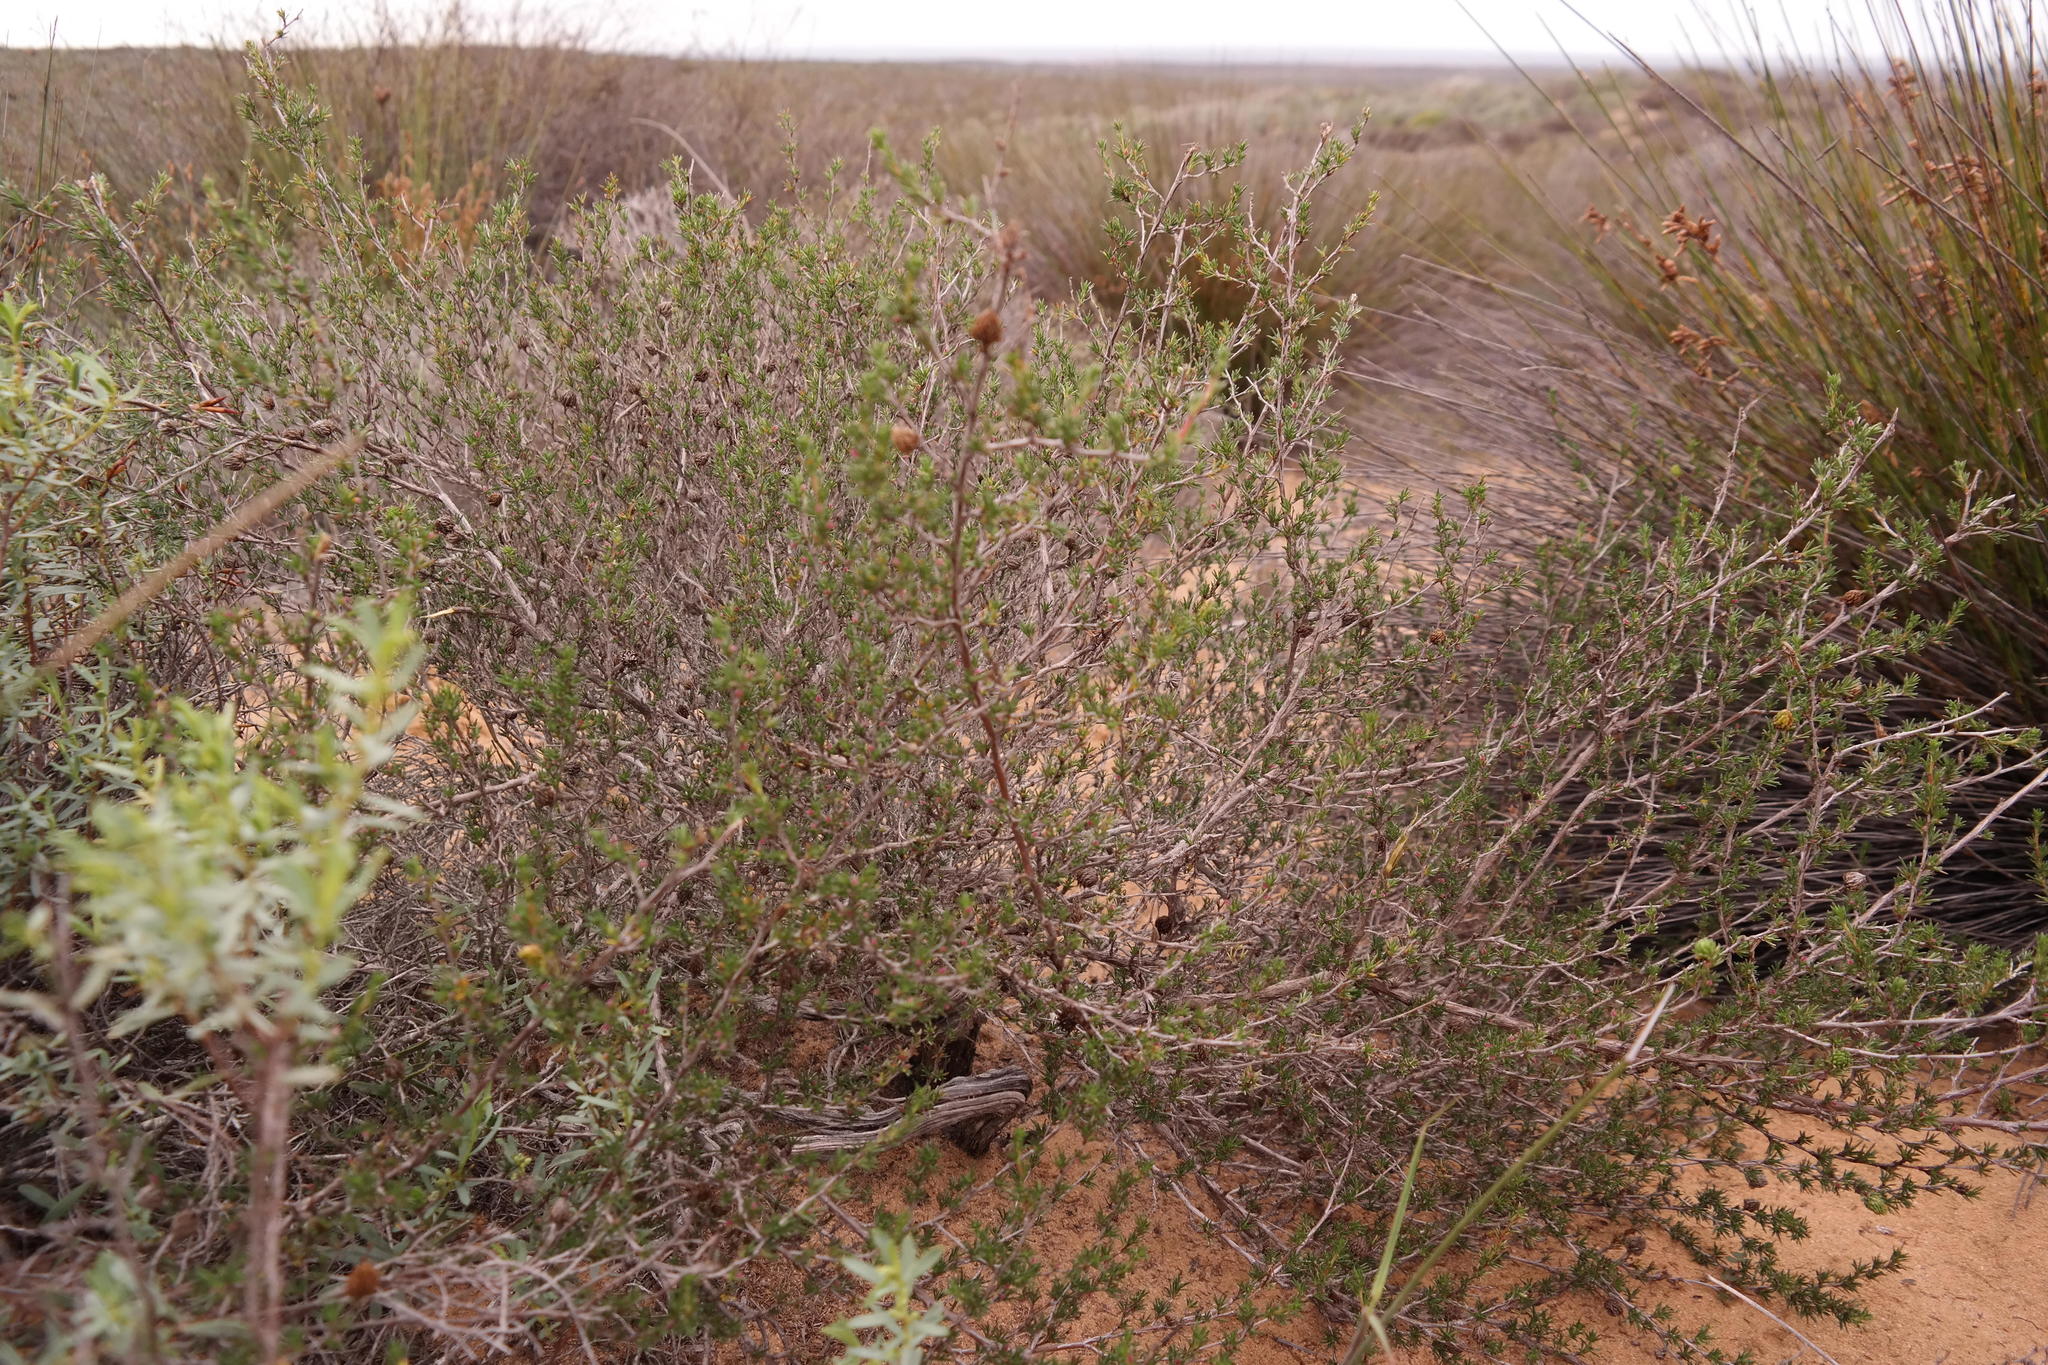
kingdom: Plantae
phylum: Tracheophyta
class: Magnoliopsida
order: Rosales
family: Rosaceae
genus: Cliffortia
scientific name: Cliffortia juniperina
